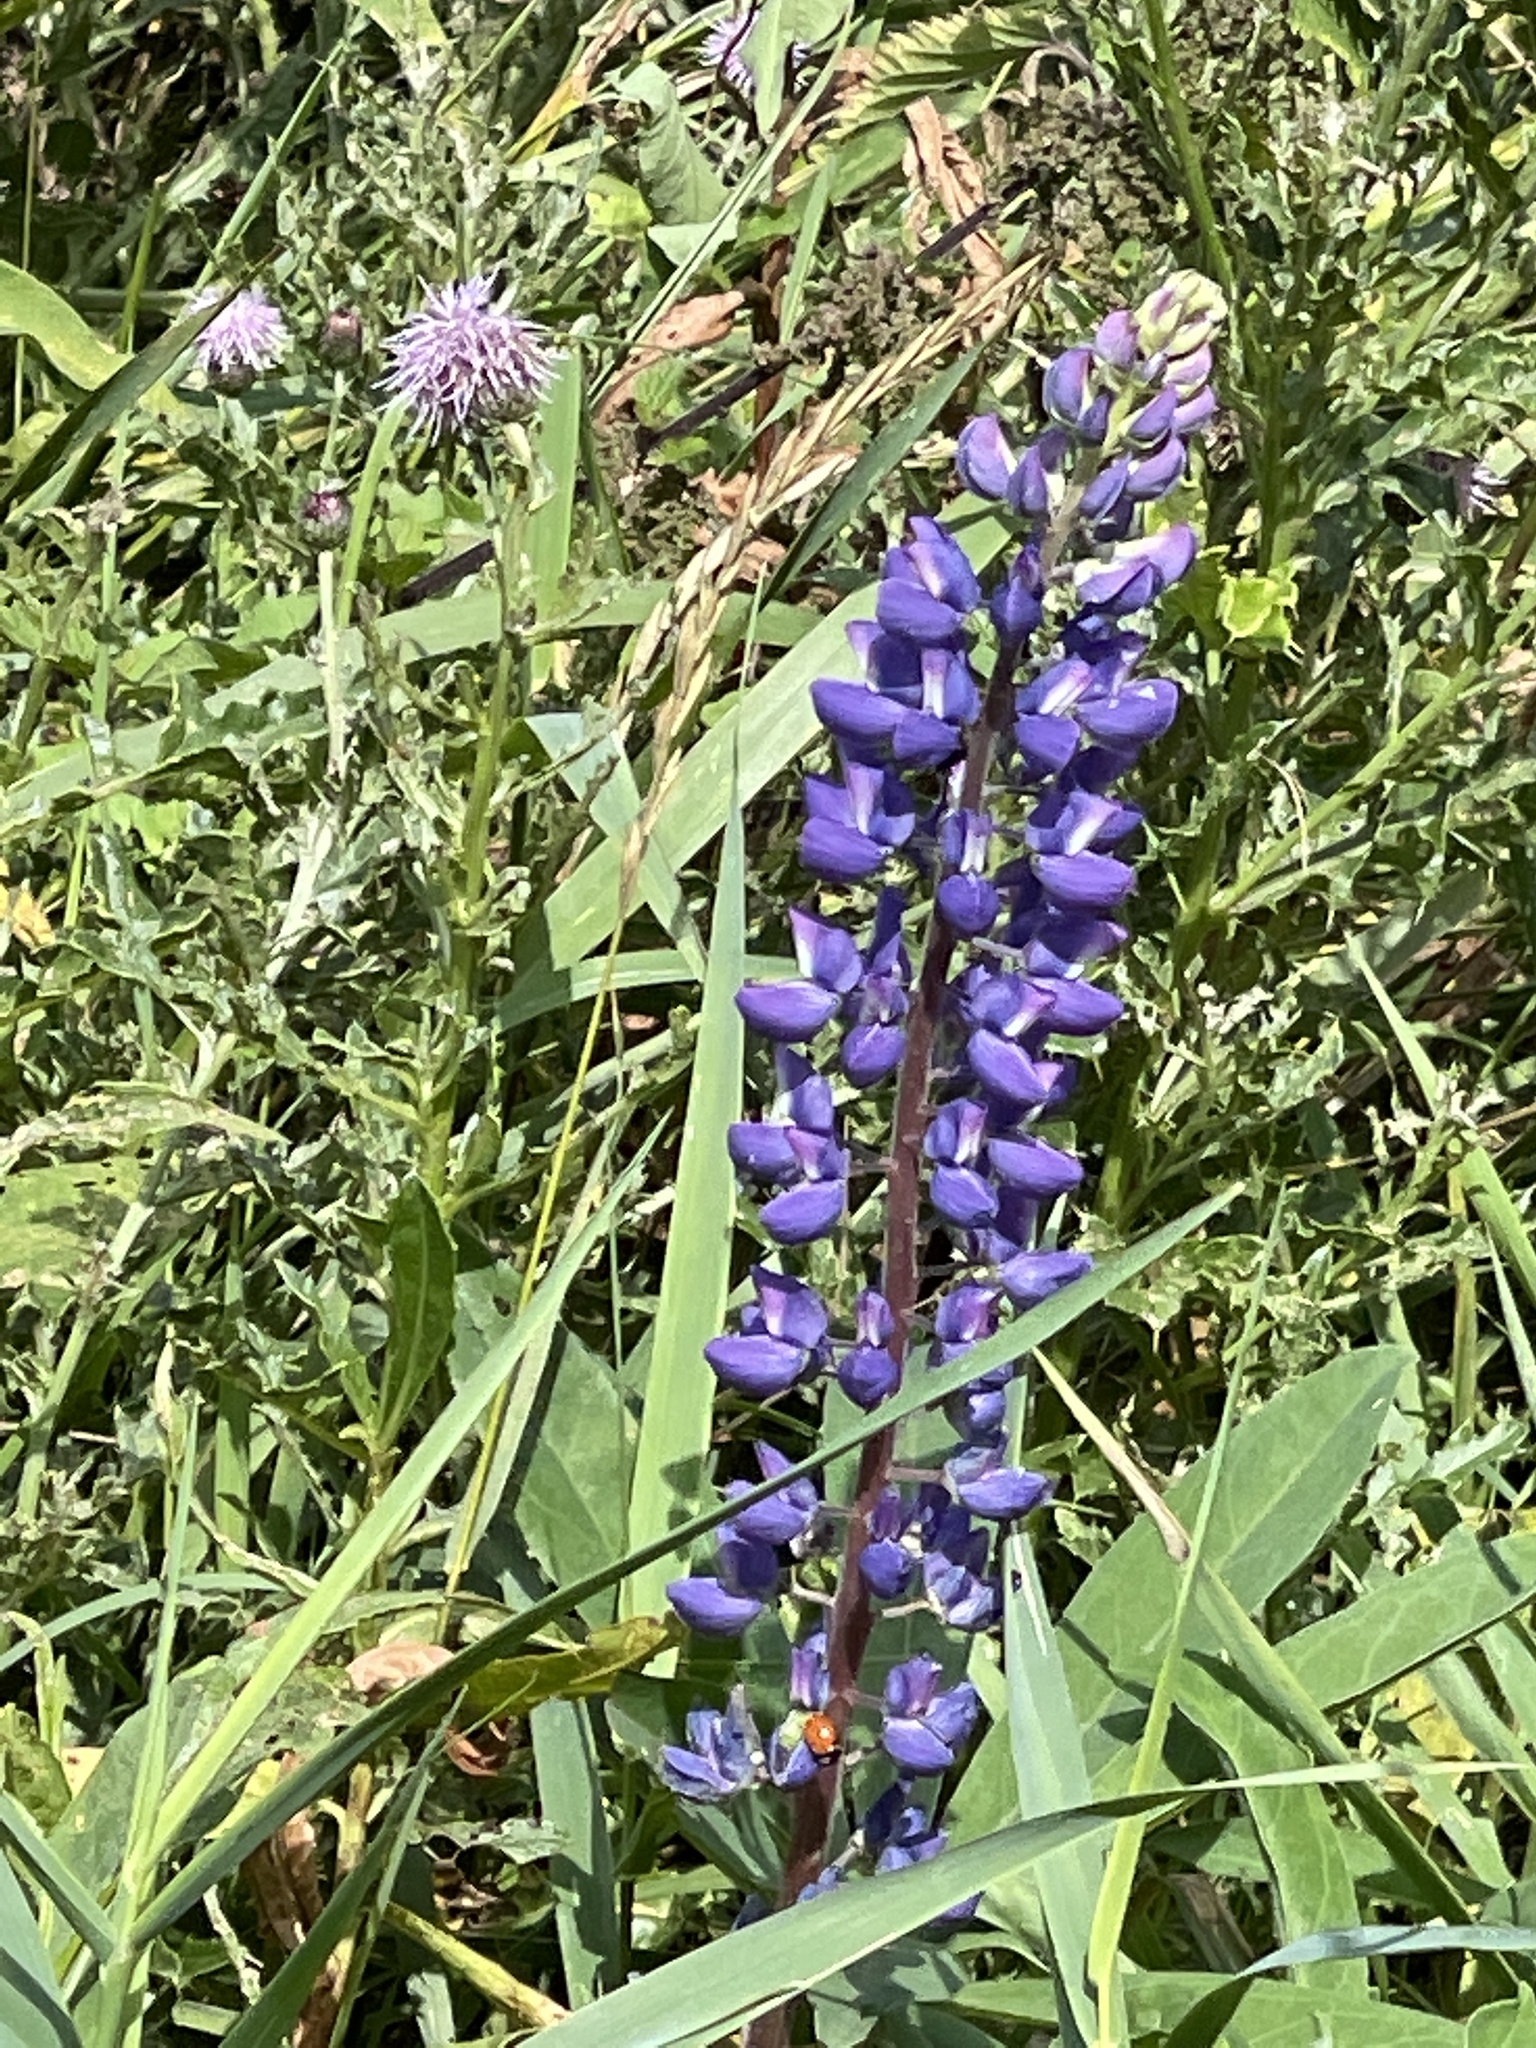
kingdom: Plantae
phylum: Tracheophyta
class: Magnoliopsida
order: Fabales
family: Fabaceae
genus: Lupinus
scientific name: Lupinus polyphyllus
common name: Garden lupin
